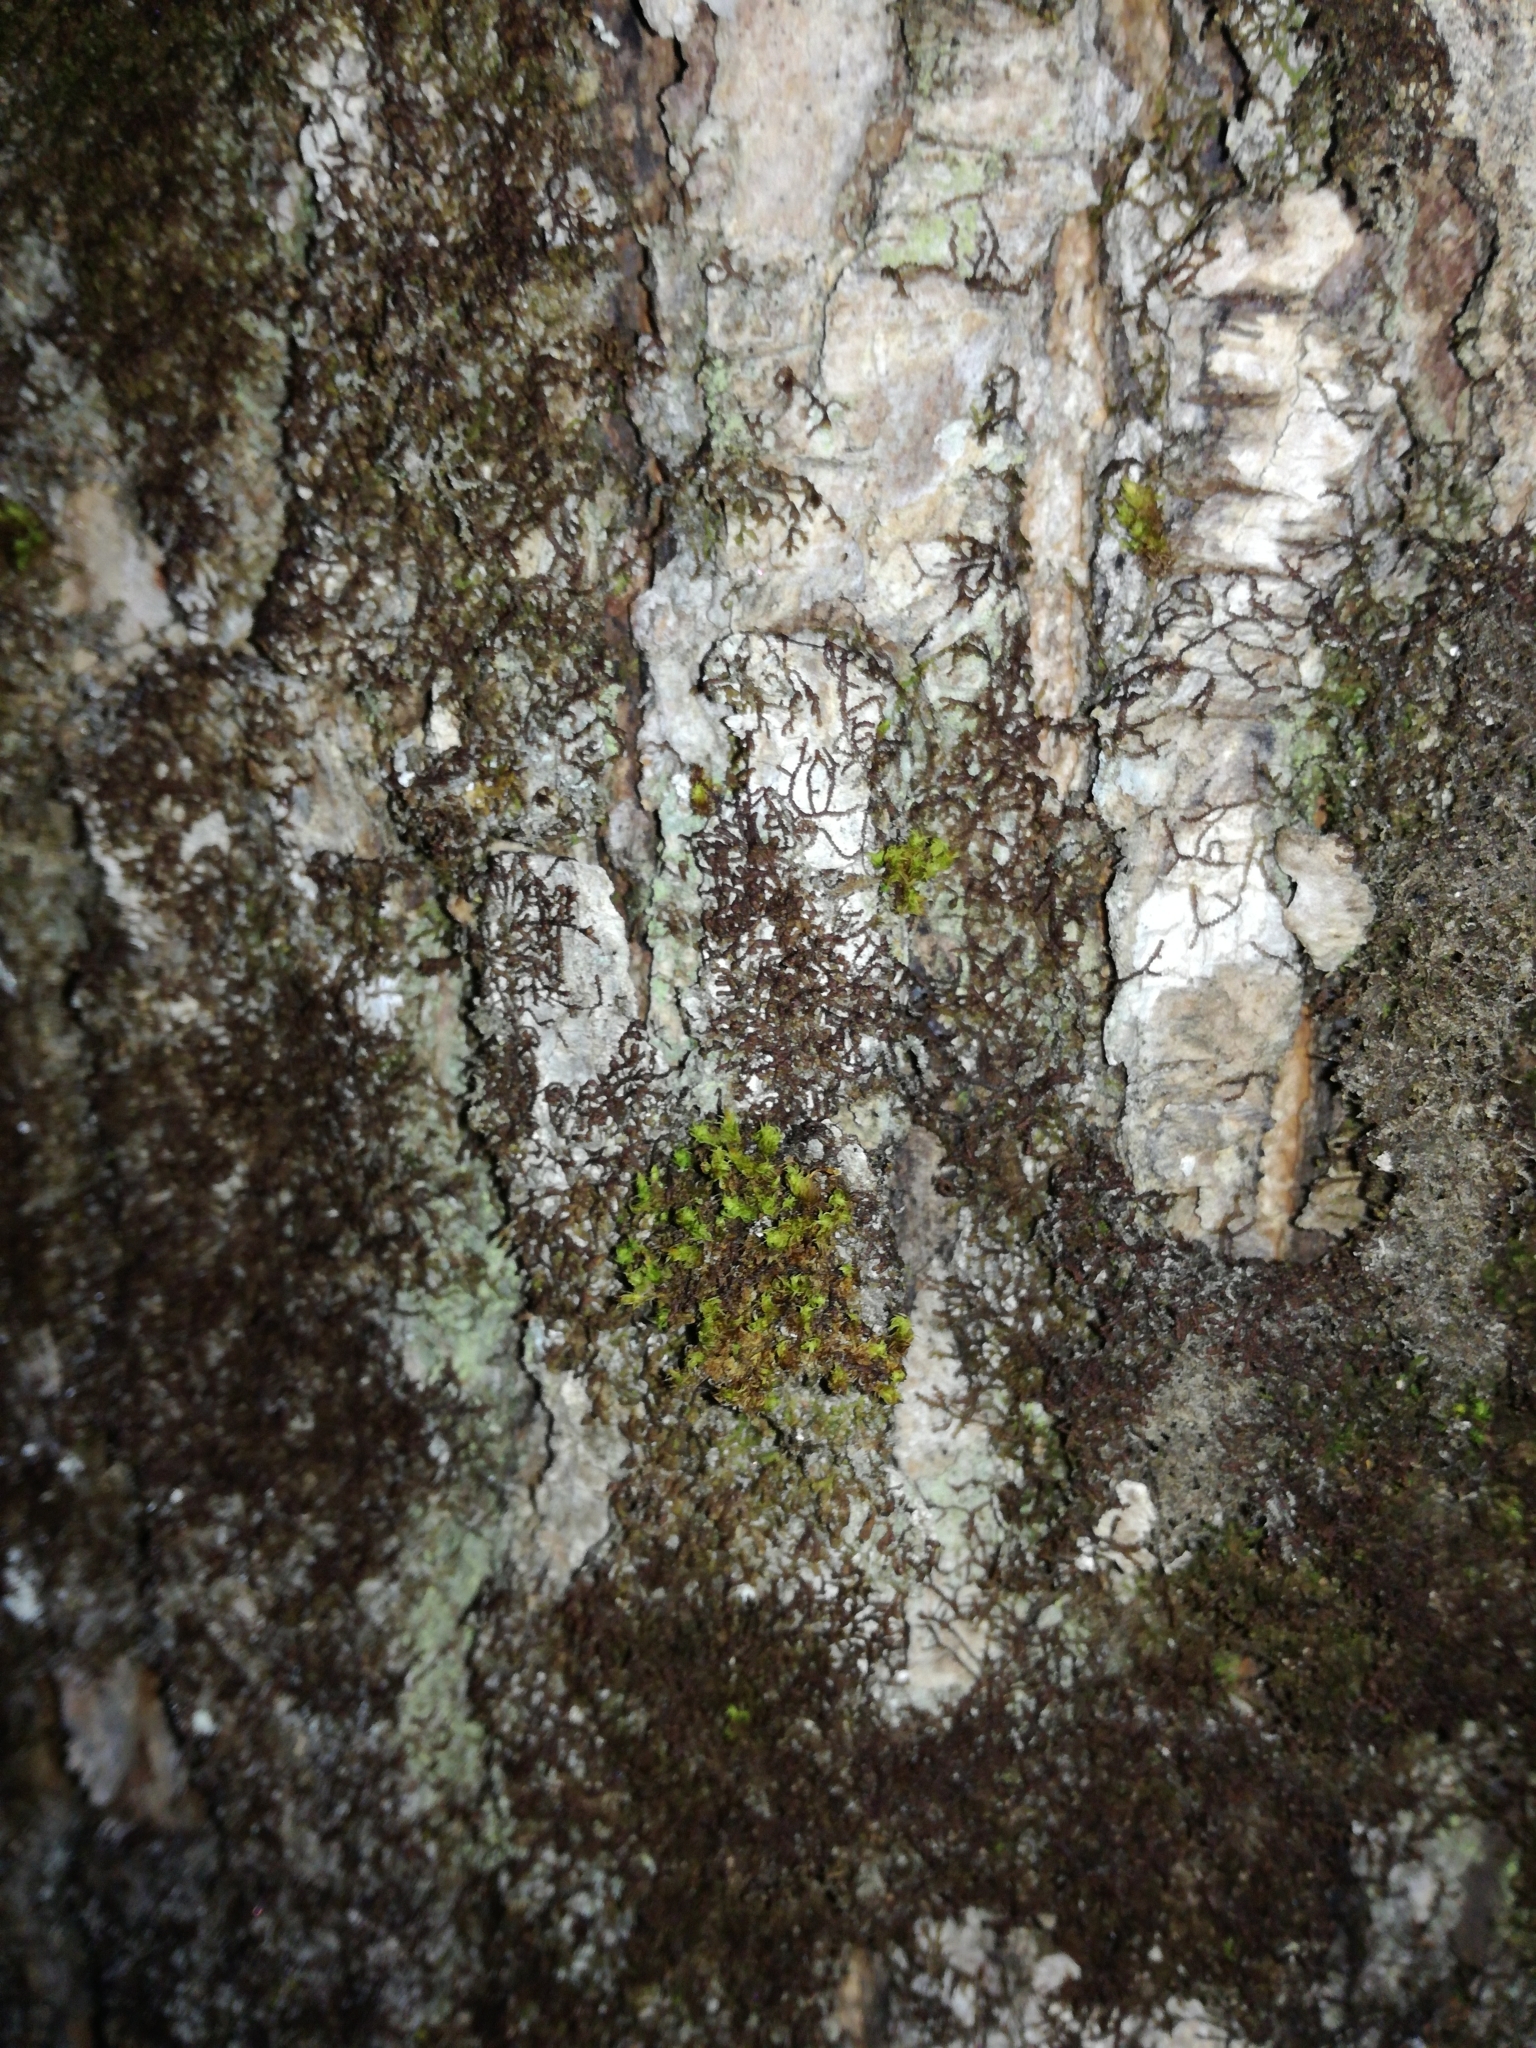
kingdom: Plantae
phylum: Bryophyta
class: Bryopsida
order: Orthotrichales
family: Orthotrichaceae
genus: Ulota
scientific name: Ulota crispa
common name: Crisped pincushion moss
